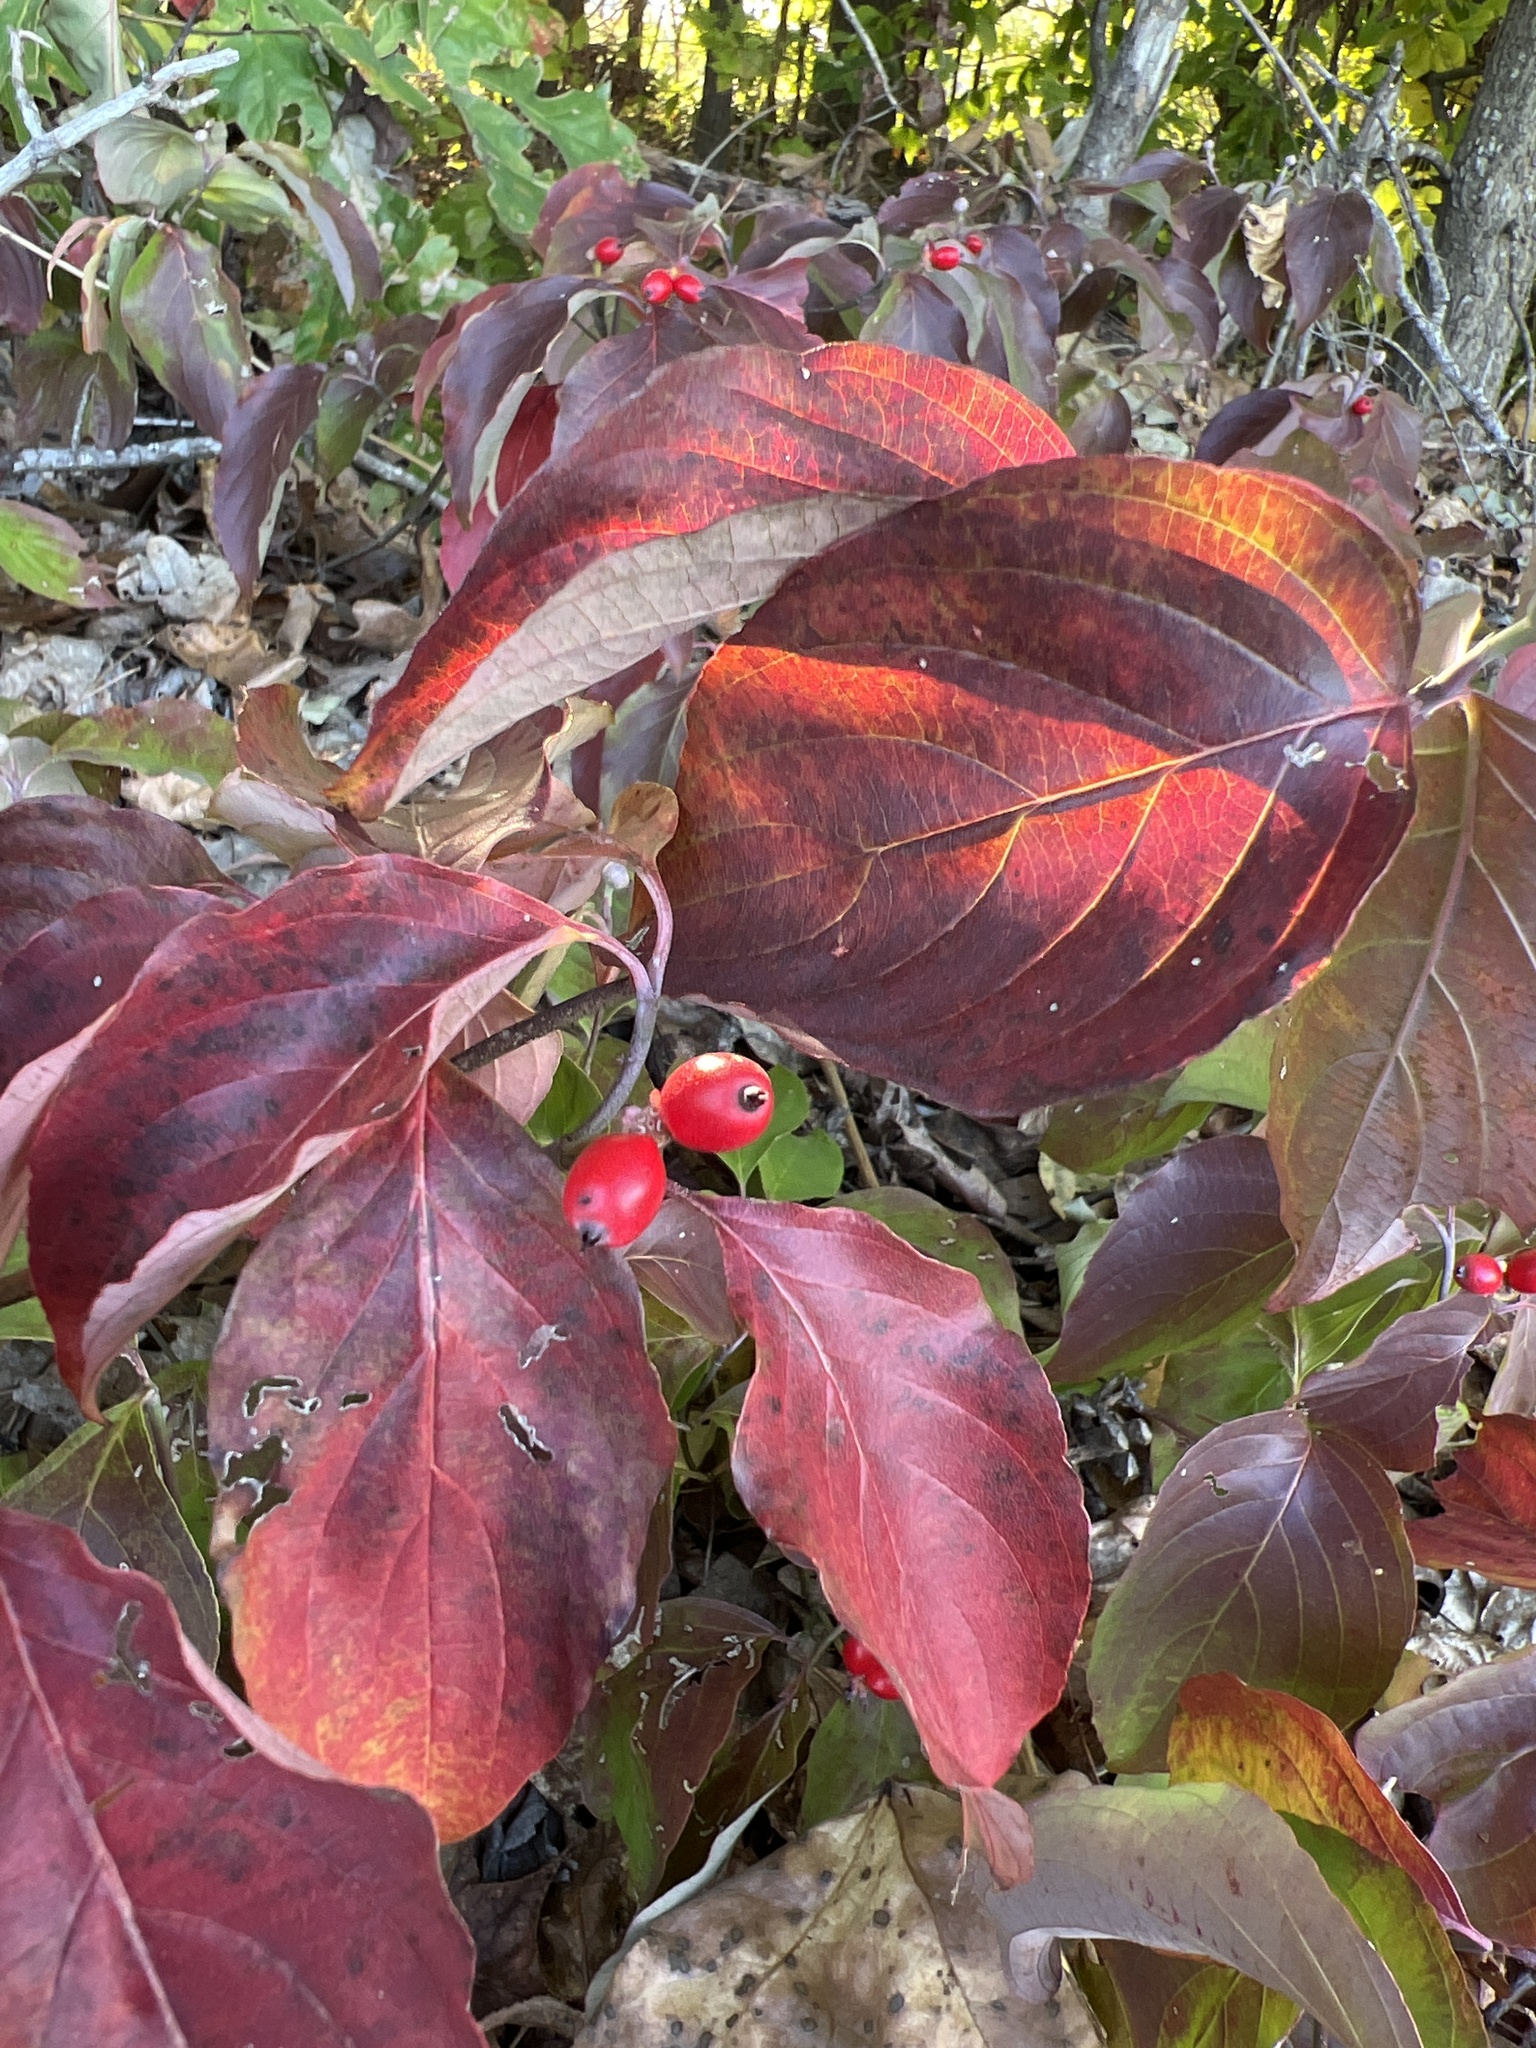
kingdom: Plantae
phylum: Tracheophyta
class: Magnoliopsida
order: Cornales
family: Cornaceae
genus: Cornus
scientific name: Cornus florida
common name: Flowering dogwood
